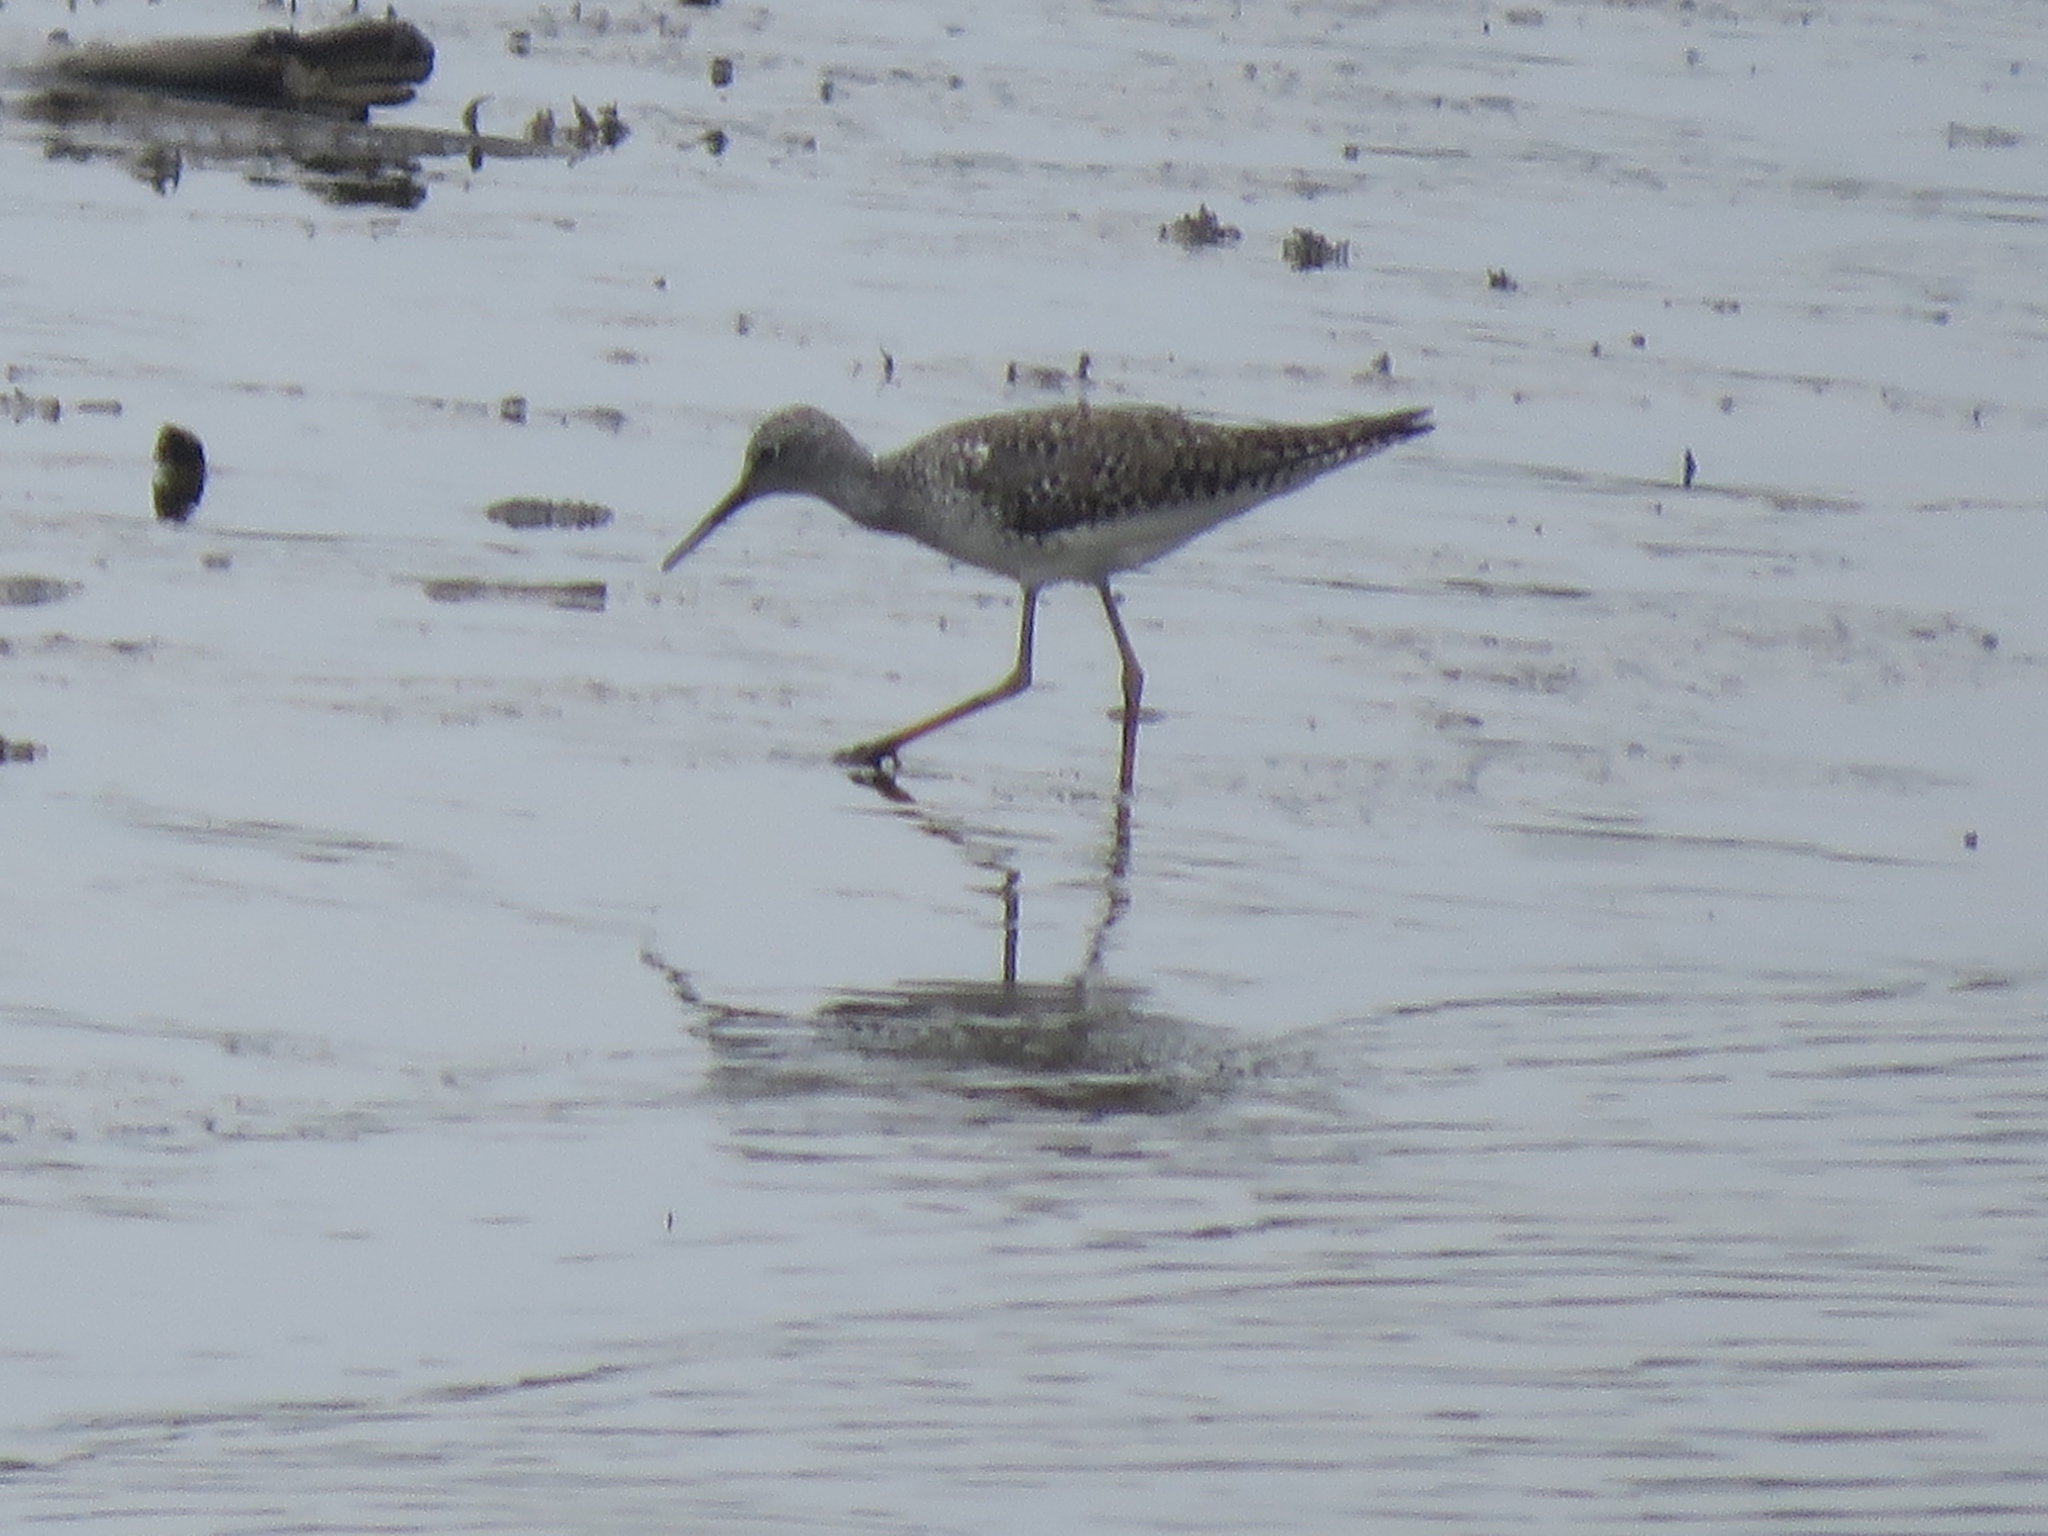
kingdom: Animalia
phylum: Chordata
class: Aves
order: Charadriiformes
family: Scolopacidae
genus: Tringa
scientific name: Tringa flavipes
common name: Lesser yellowlegs
